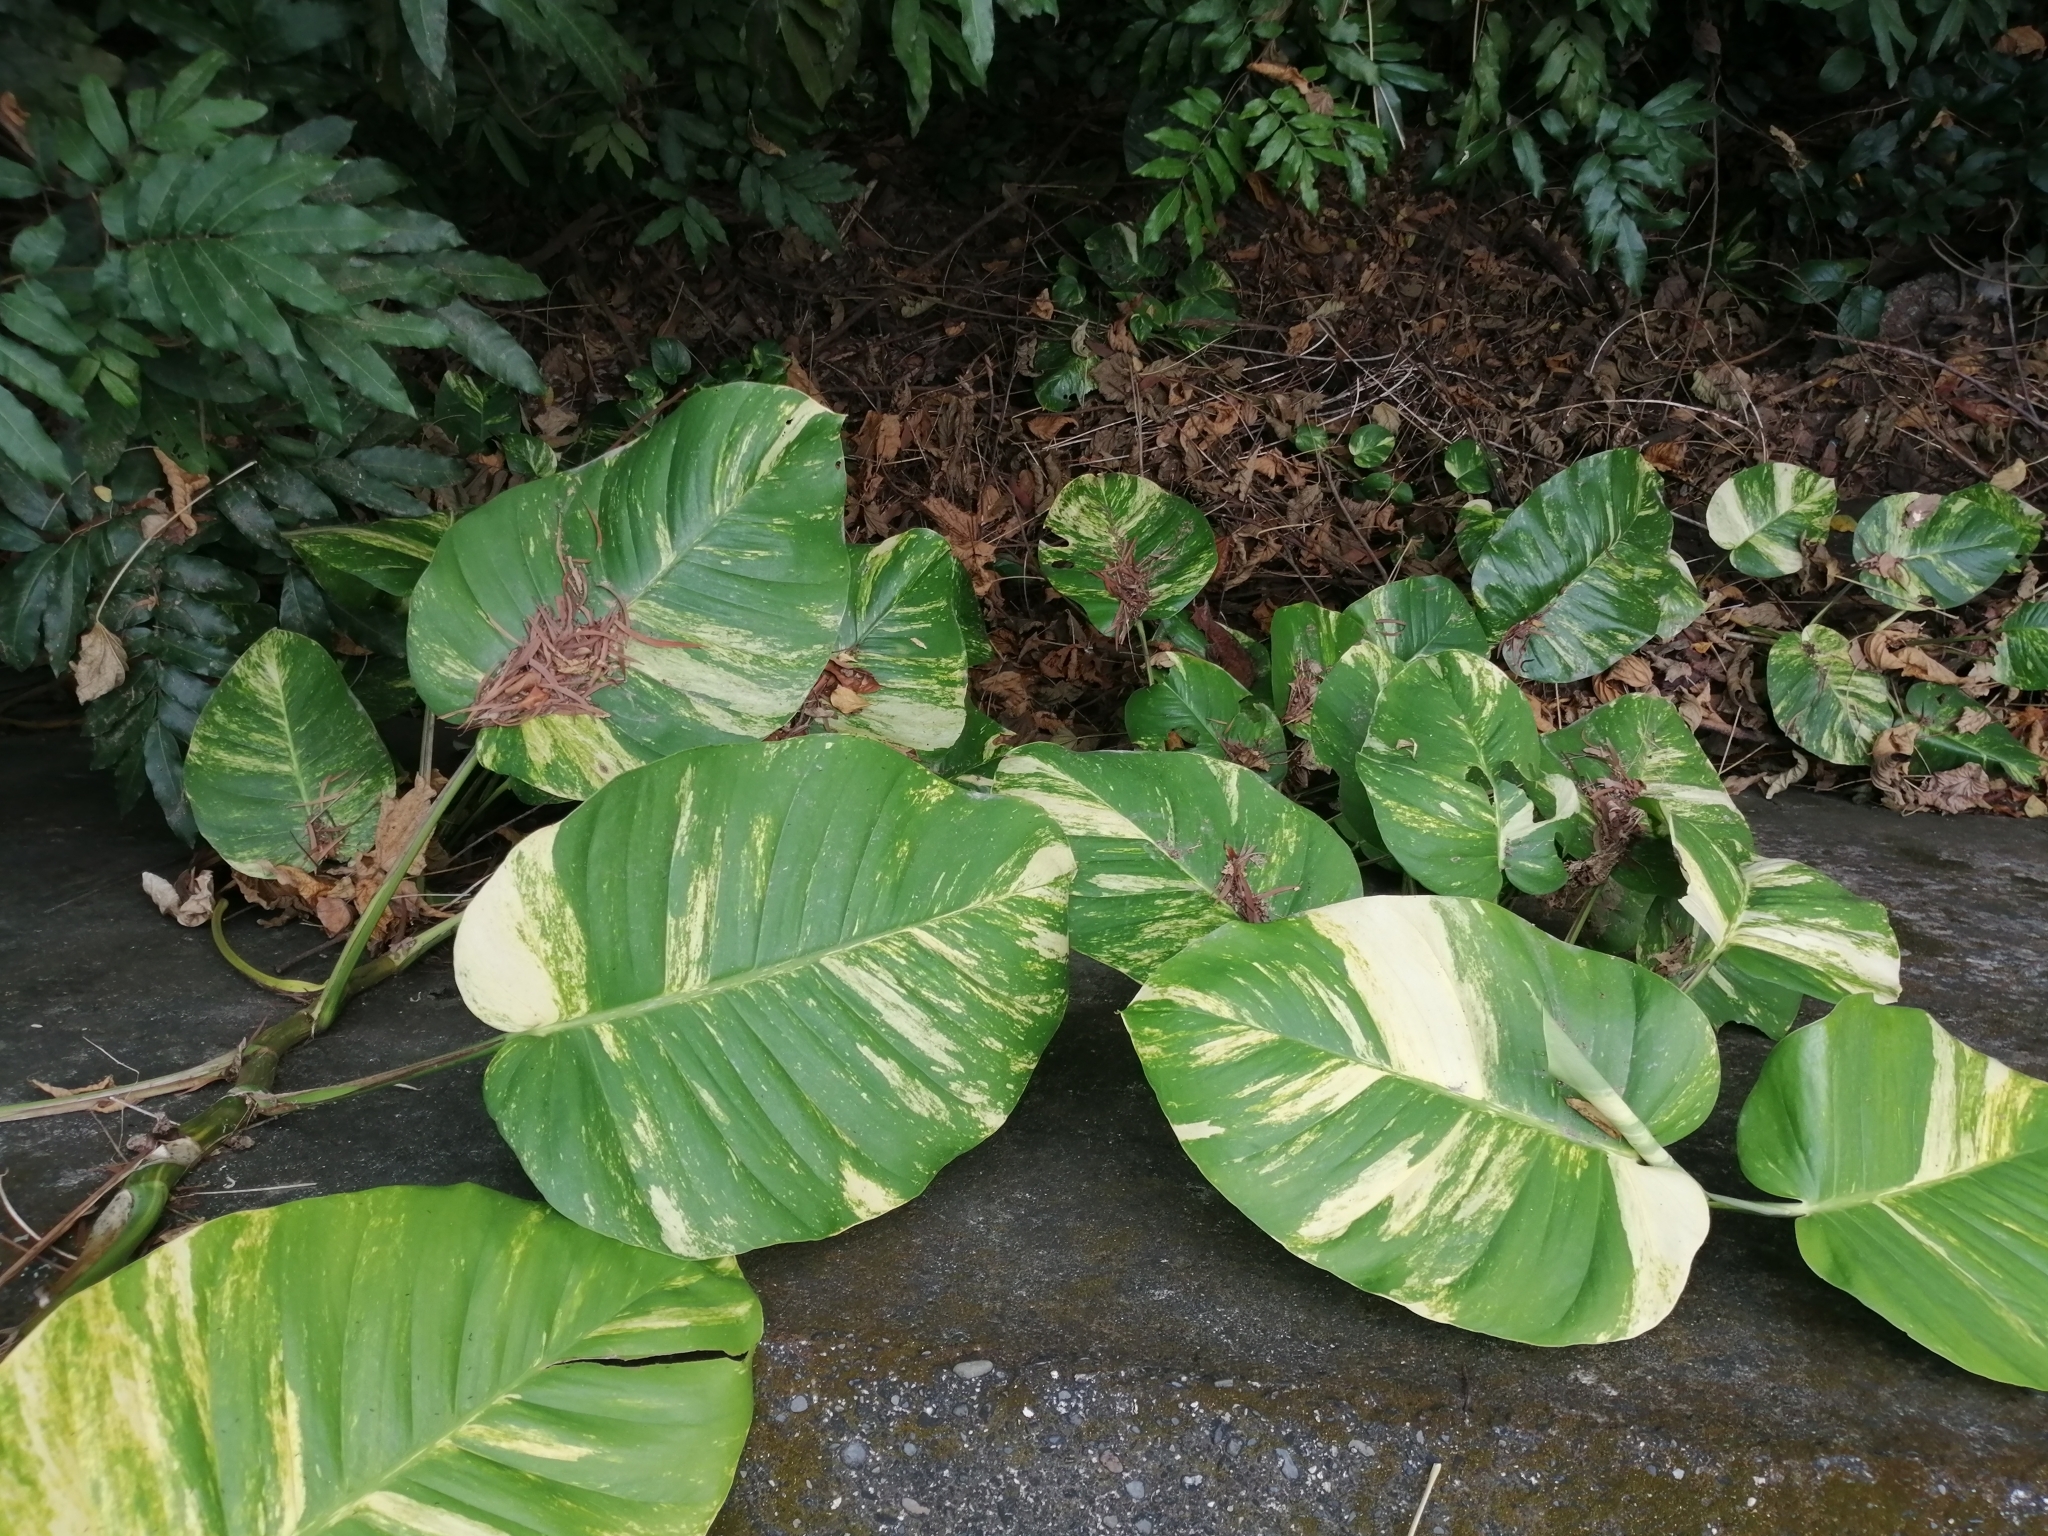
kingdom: Plantae
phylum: Tracheophyta
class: Liliopsida
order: Alismatales
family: Araceae
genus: Epipremnum
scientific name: Epipremnum aureum
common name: Golden hunter's-robe
